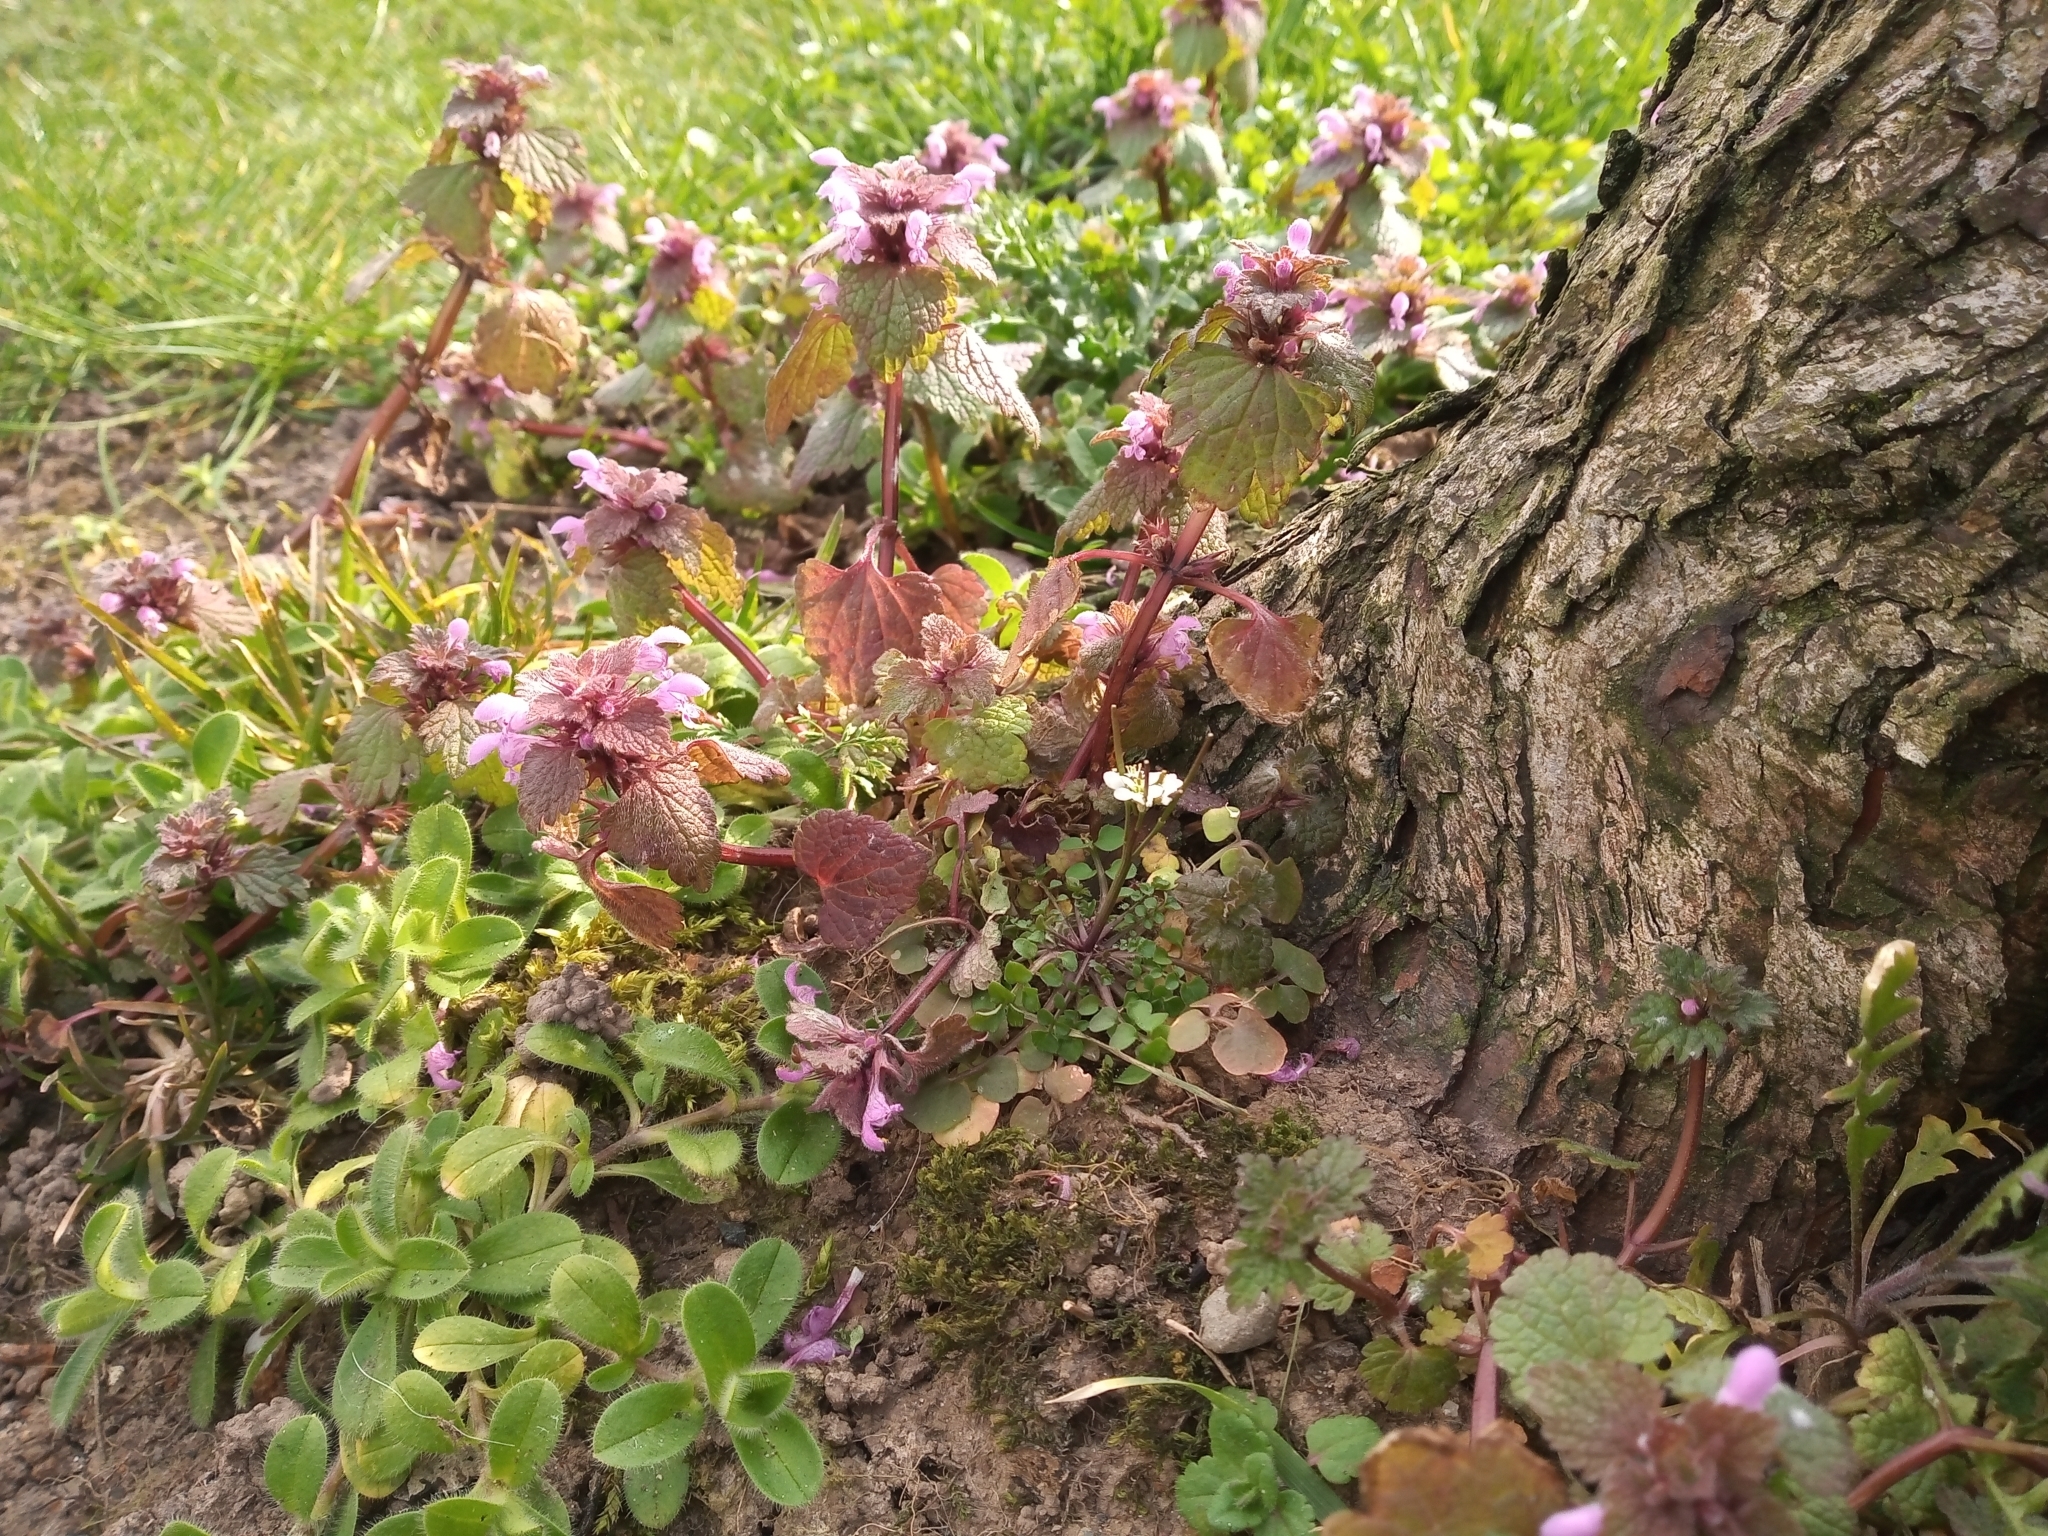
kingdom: Plantae
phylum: Tracheophyta
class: Magnoliopsida
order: Lamiales
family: Lamiaceae
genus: Lamium
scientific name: Lamium purpureum
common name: Red dead-nettle
